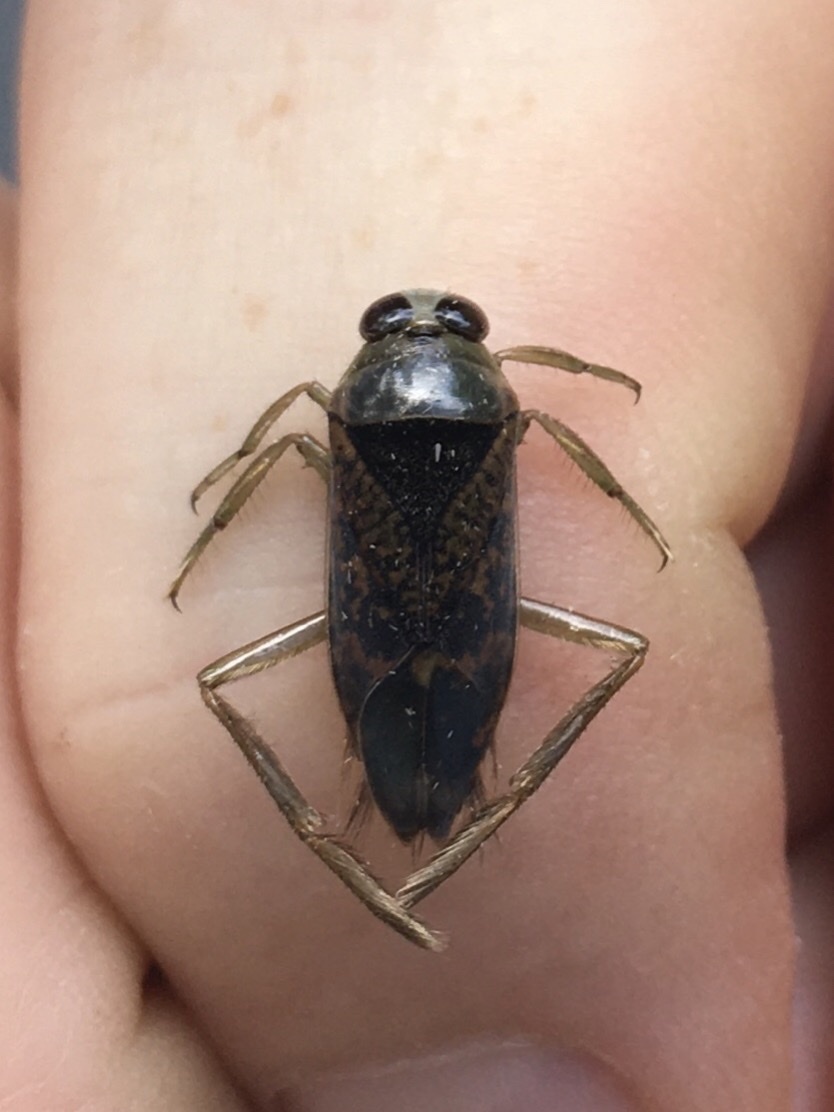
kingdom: Animalia
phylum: Arthropoda
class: Insecta
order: Hemiptera
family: Notonectidae
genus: Notonecta
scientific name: Notonecta irrorata
